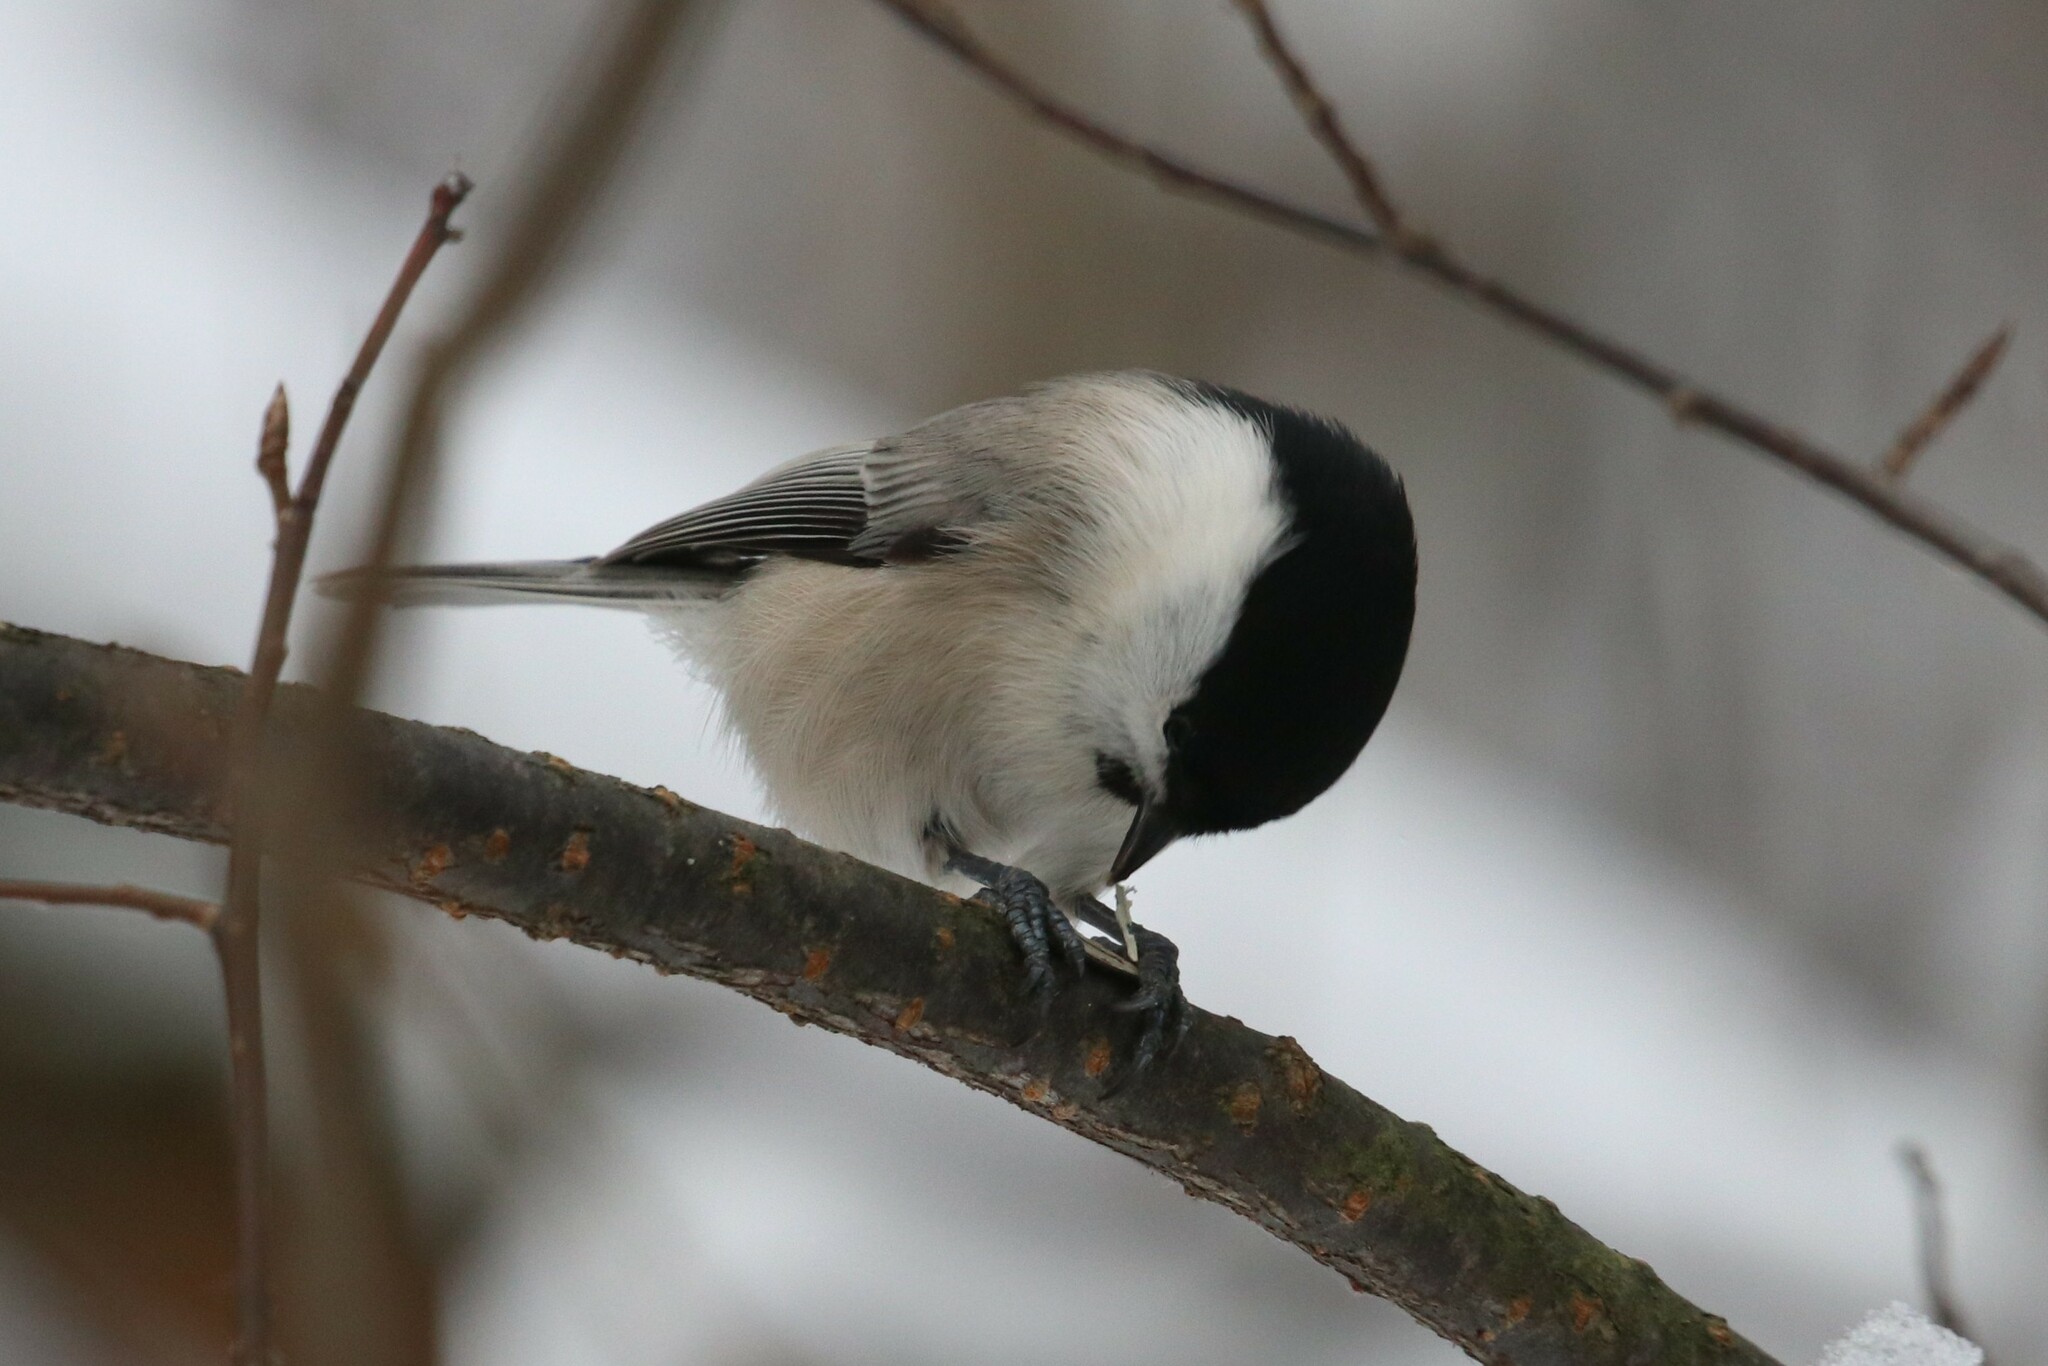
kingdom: Animalia
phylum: Chordata
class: Aves
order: Passeriformes
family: Paridae
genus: Poecile
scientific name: Poecile montanus
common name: Willow tit
